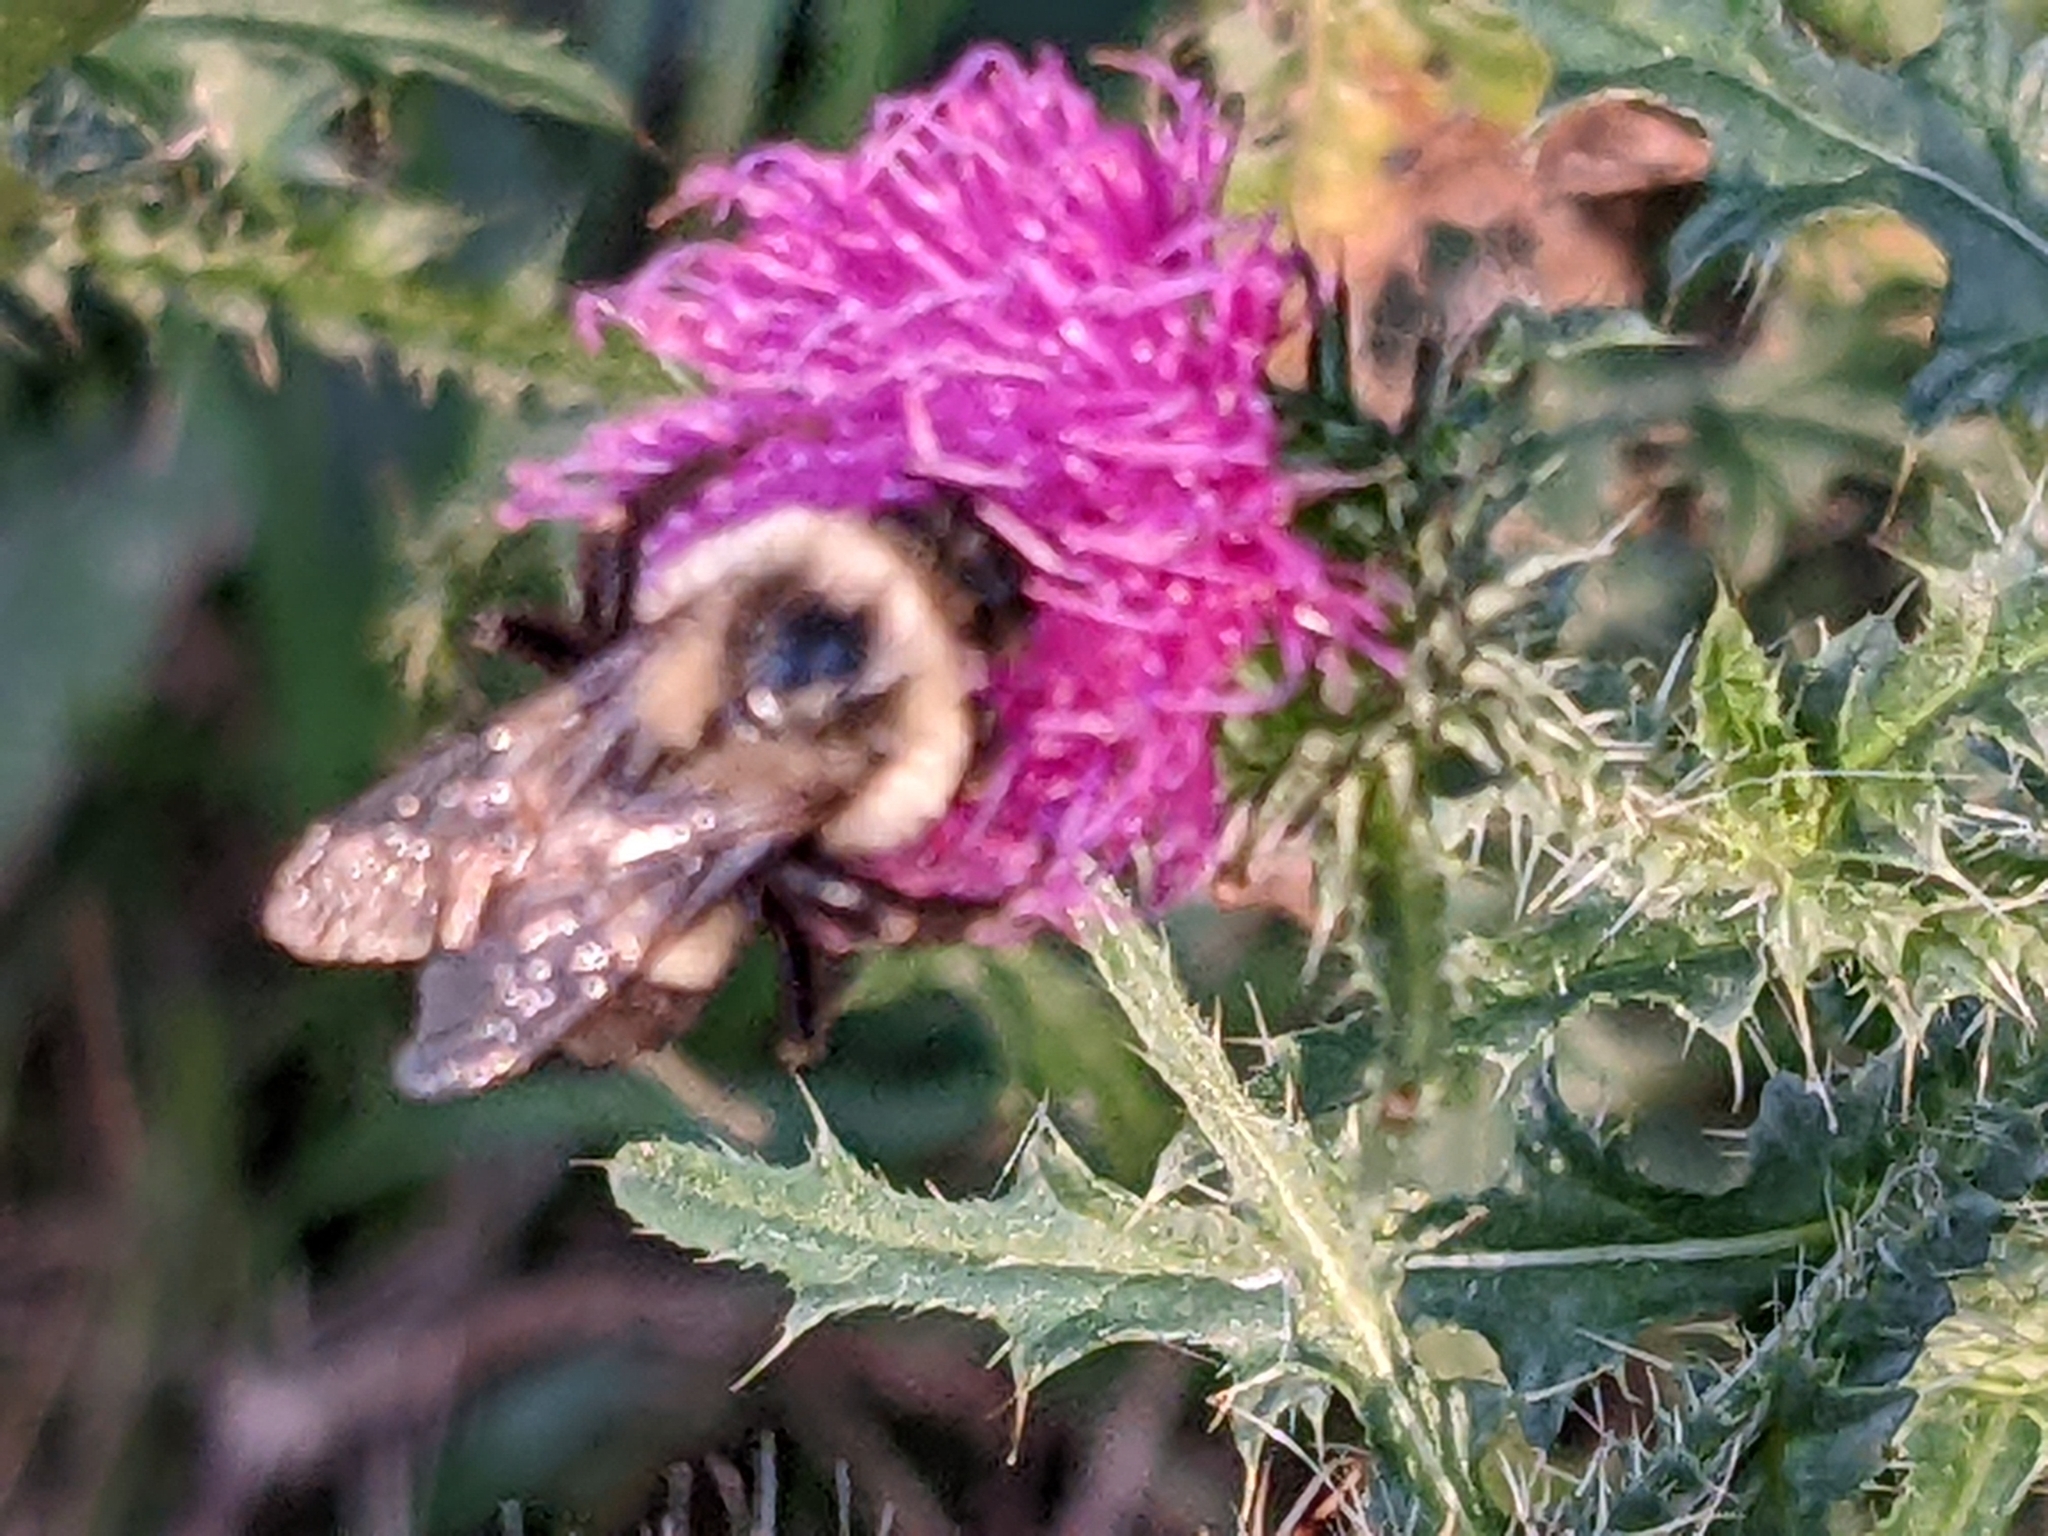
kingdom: Animalia
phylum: Arthropoda
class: Insecta
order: Hymenoptera
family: Apidae
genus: Bombus
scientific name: Bombus impatiens
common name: Common eastern bumble bee
